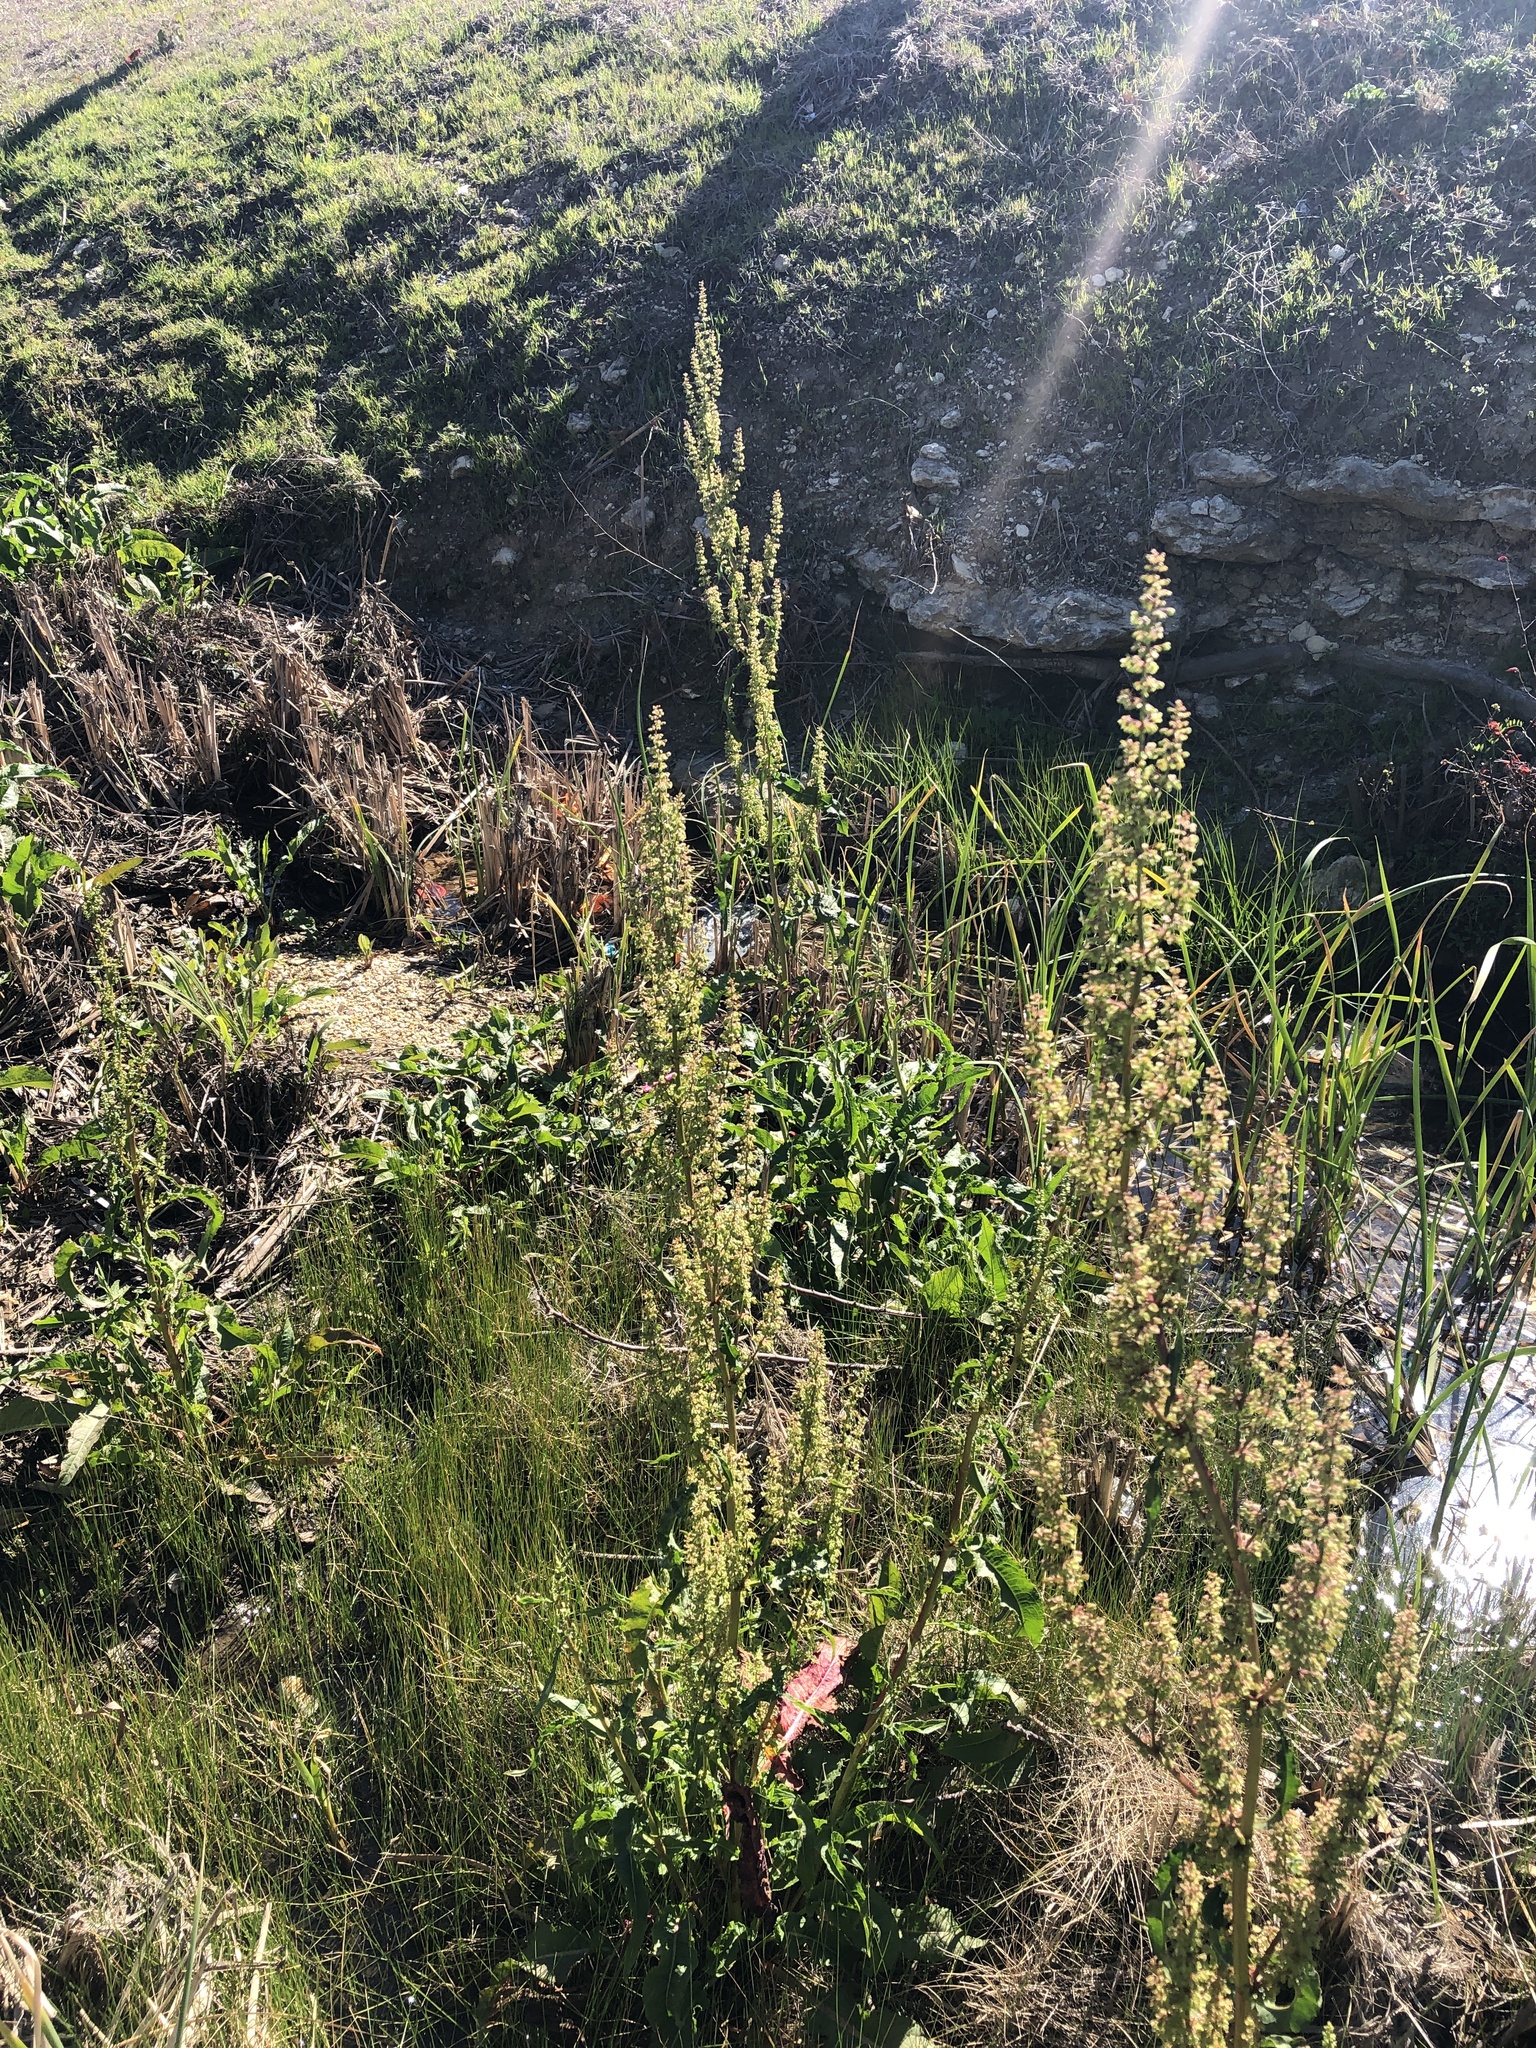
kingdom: Plantae
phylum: Tracheophyta
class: Magnoliopsida
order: Caryophyllales
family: Polygonaceae
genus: Rumex
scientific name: Rumex crispus
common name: Curled dock
